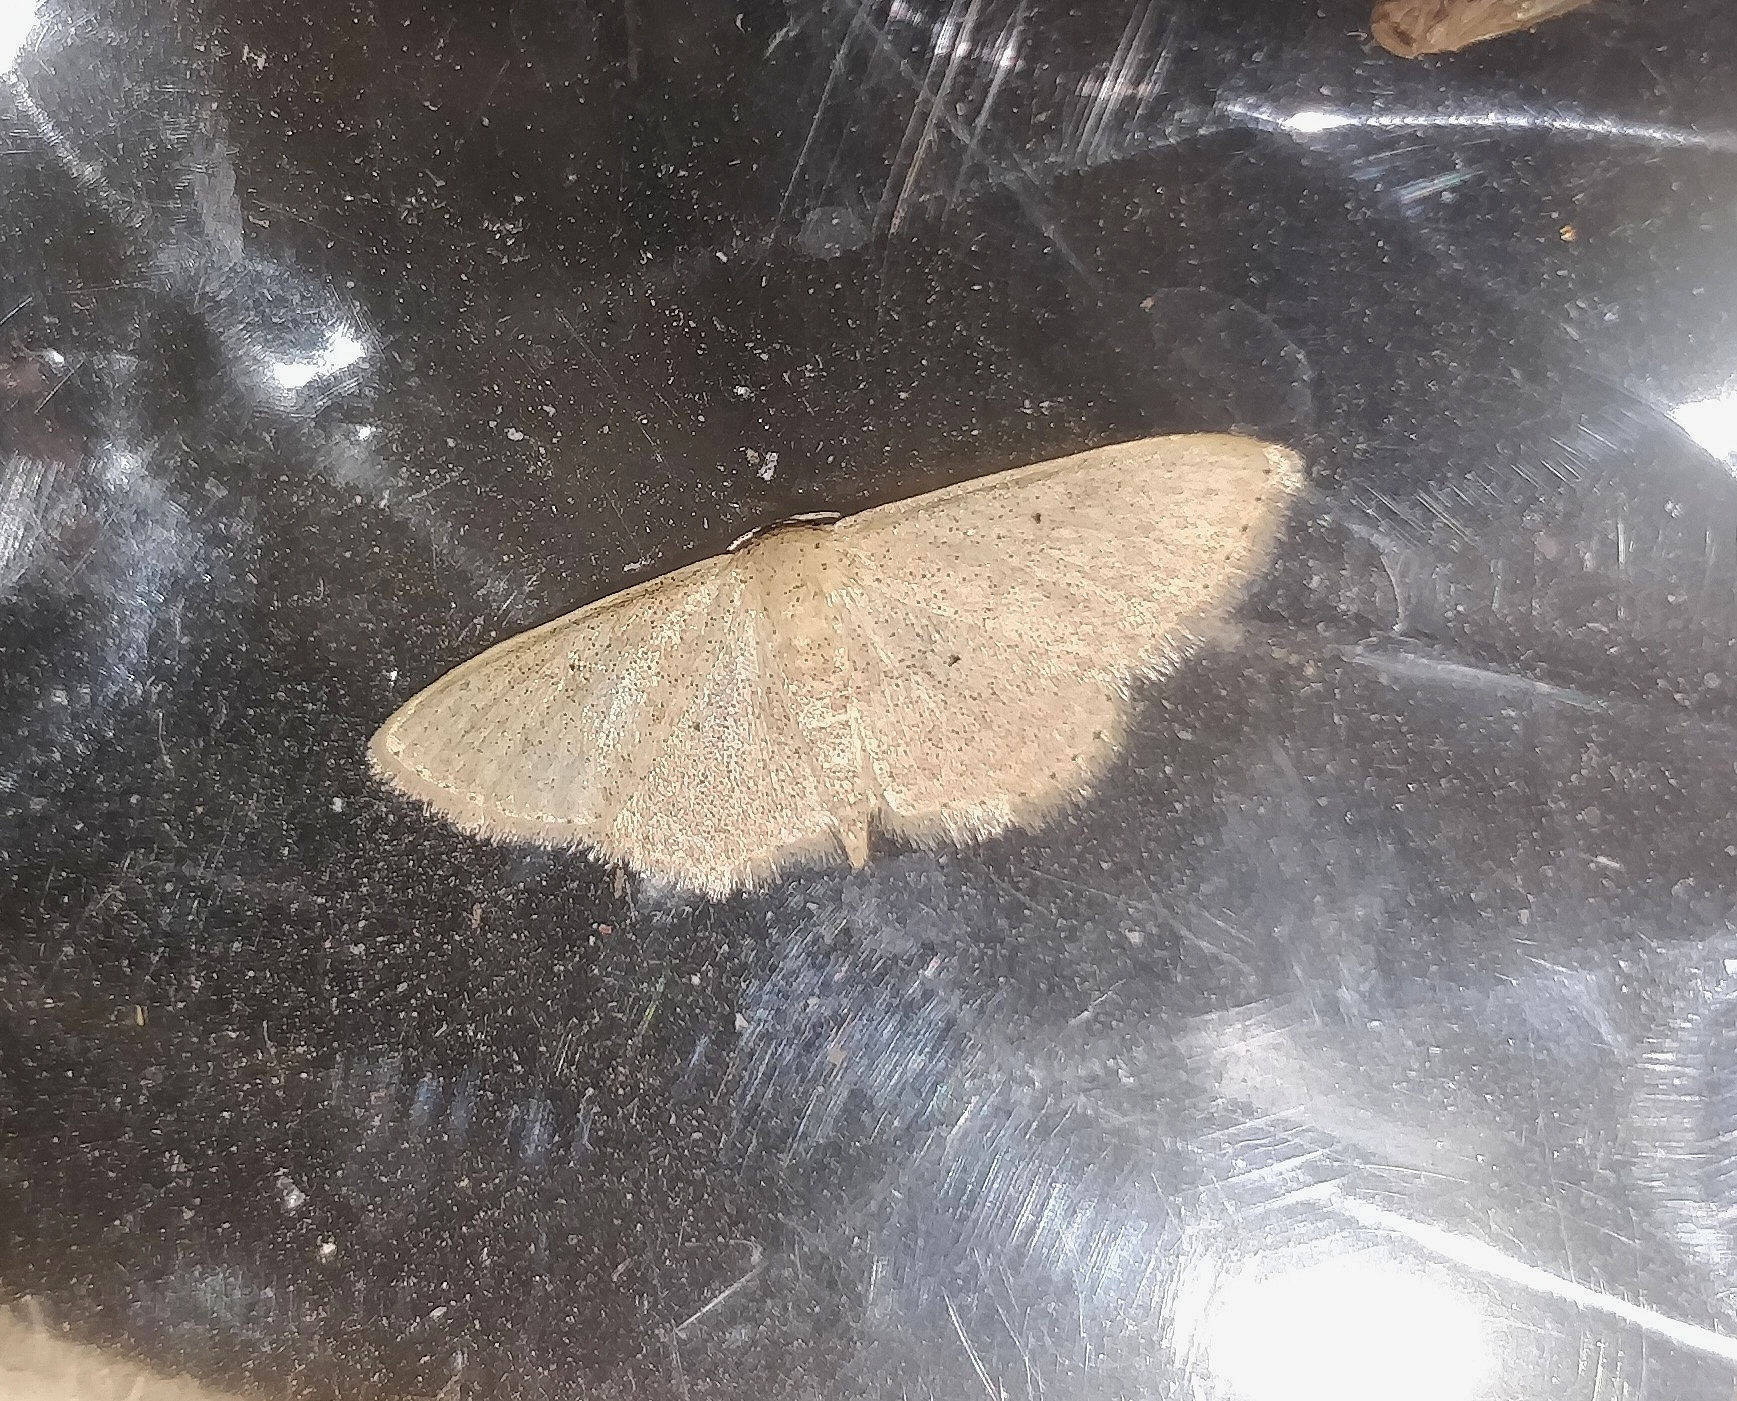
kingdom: Animalia
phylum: Arthropoda
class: Insecta
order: Lepidoptera
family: Geometridae
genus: Scopula
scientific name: Scopula minorata
